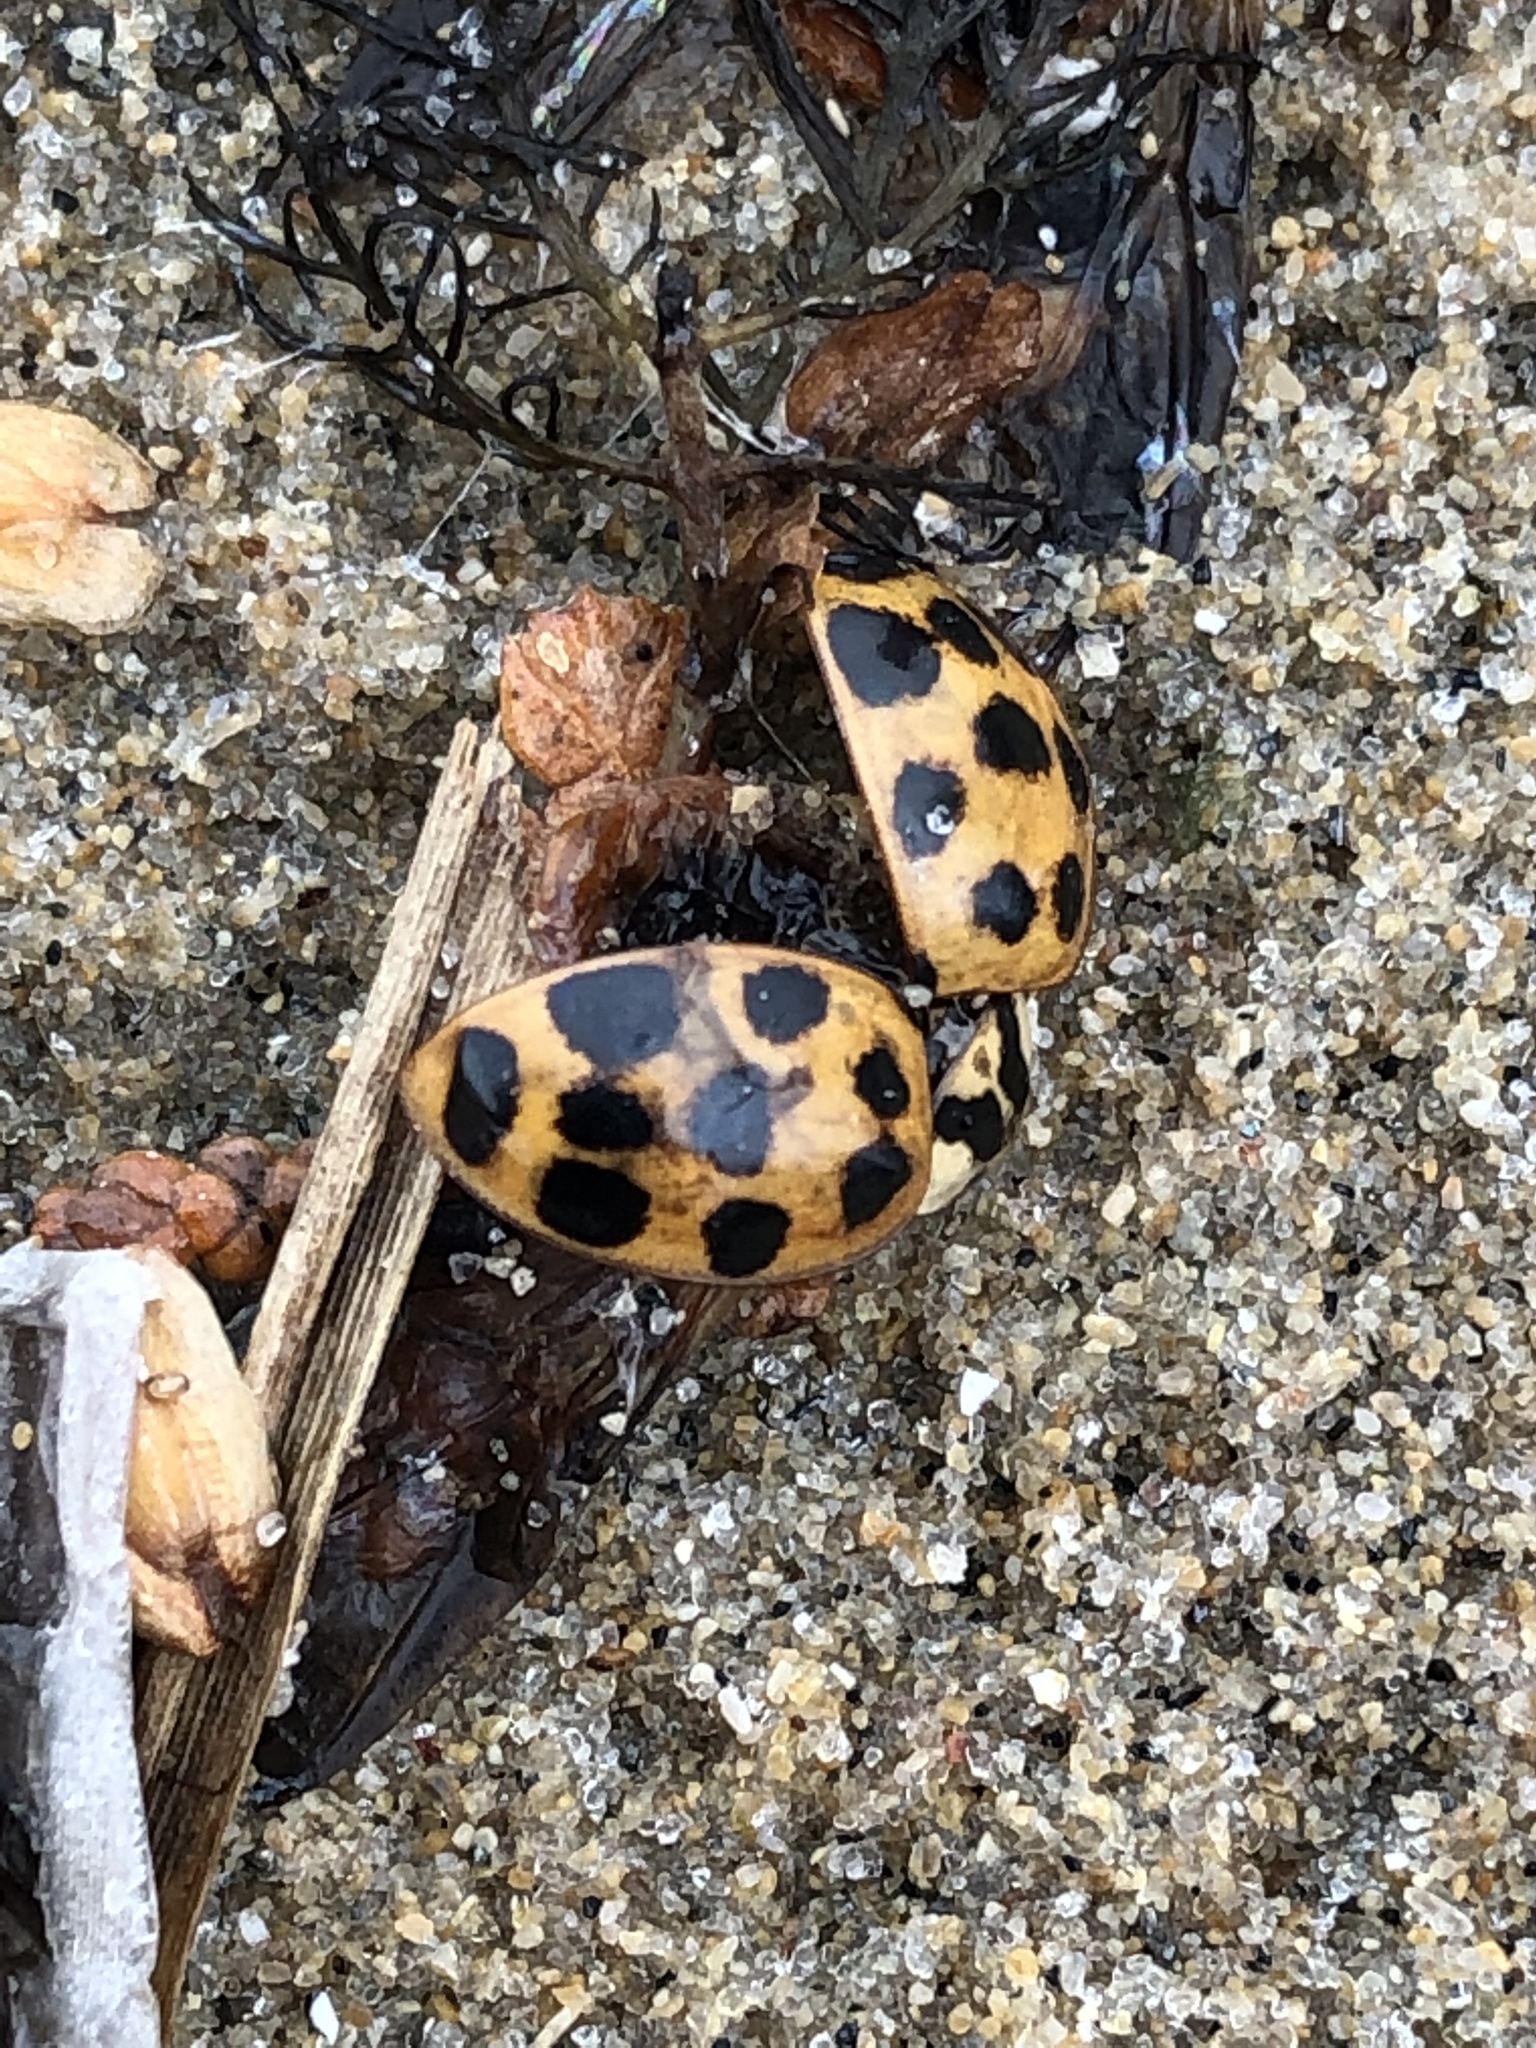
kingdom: Animalia
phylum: Arthropoda
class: Insecta
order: Coleoptera
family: Coccinellidae
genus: Harmonia
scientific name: Harmonia axyridis
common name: Harlequin ladybird
